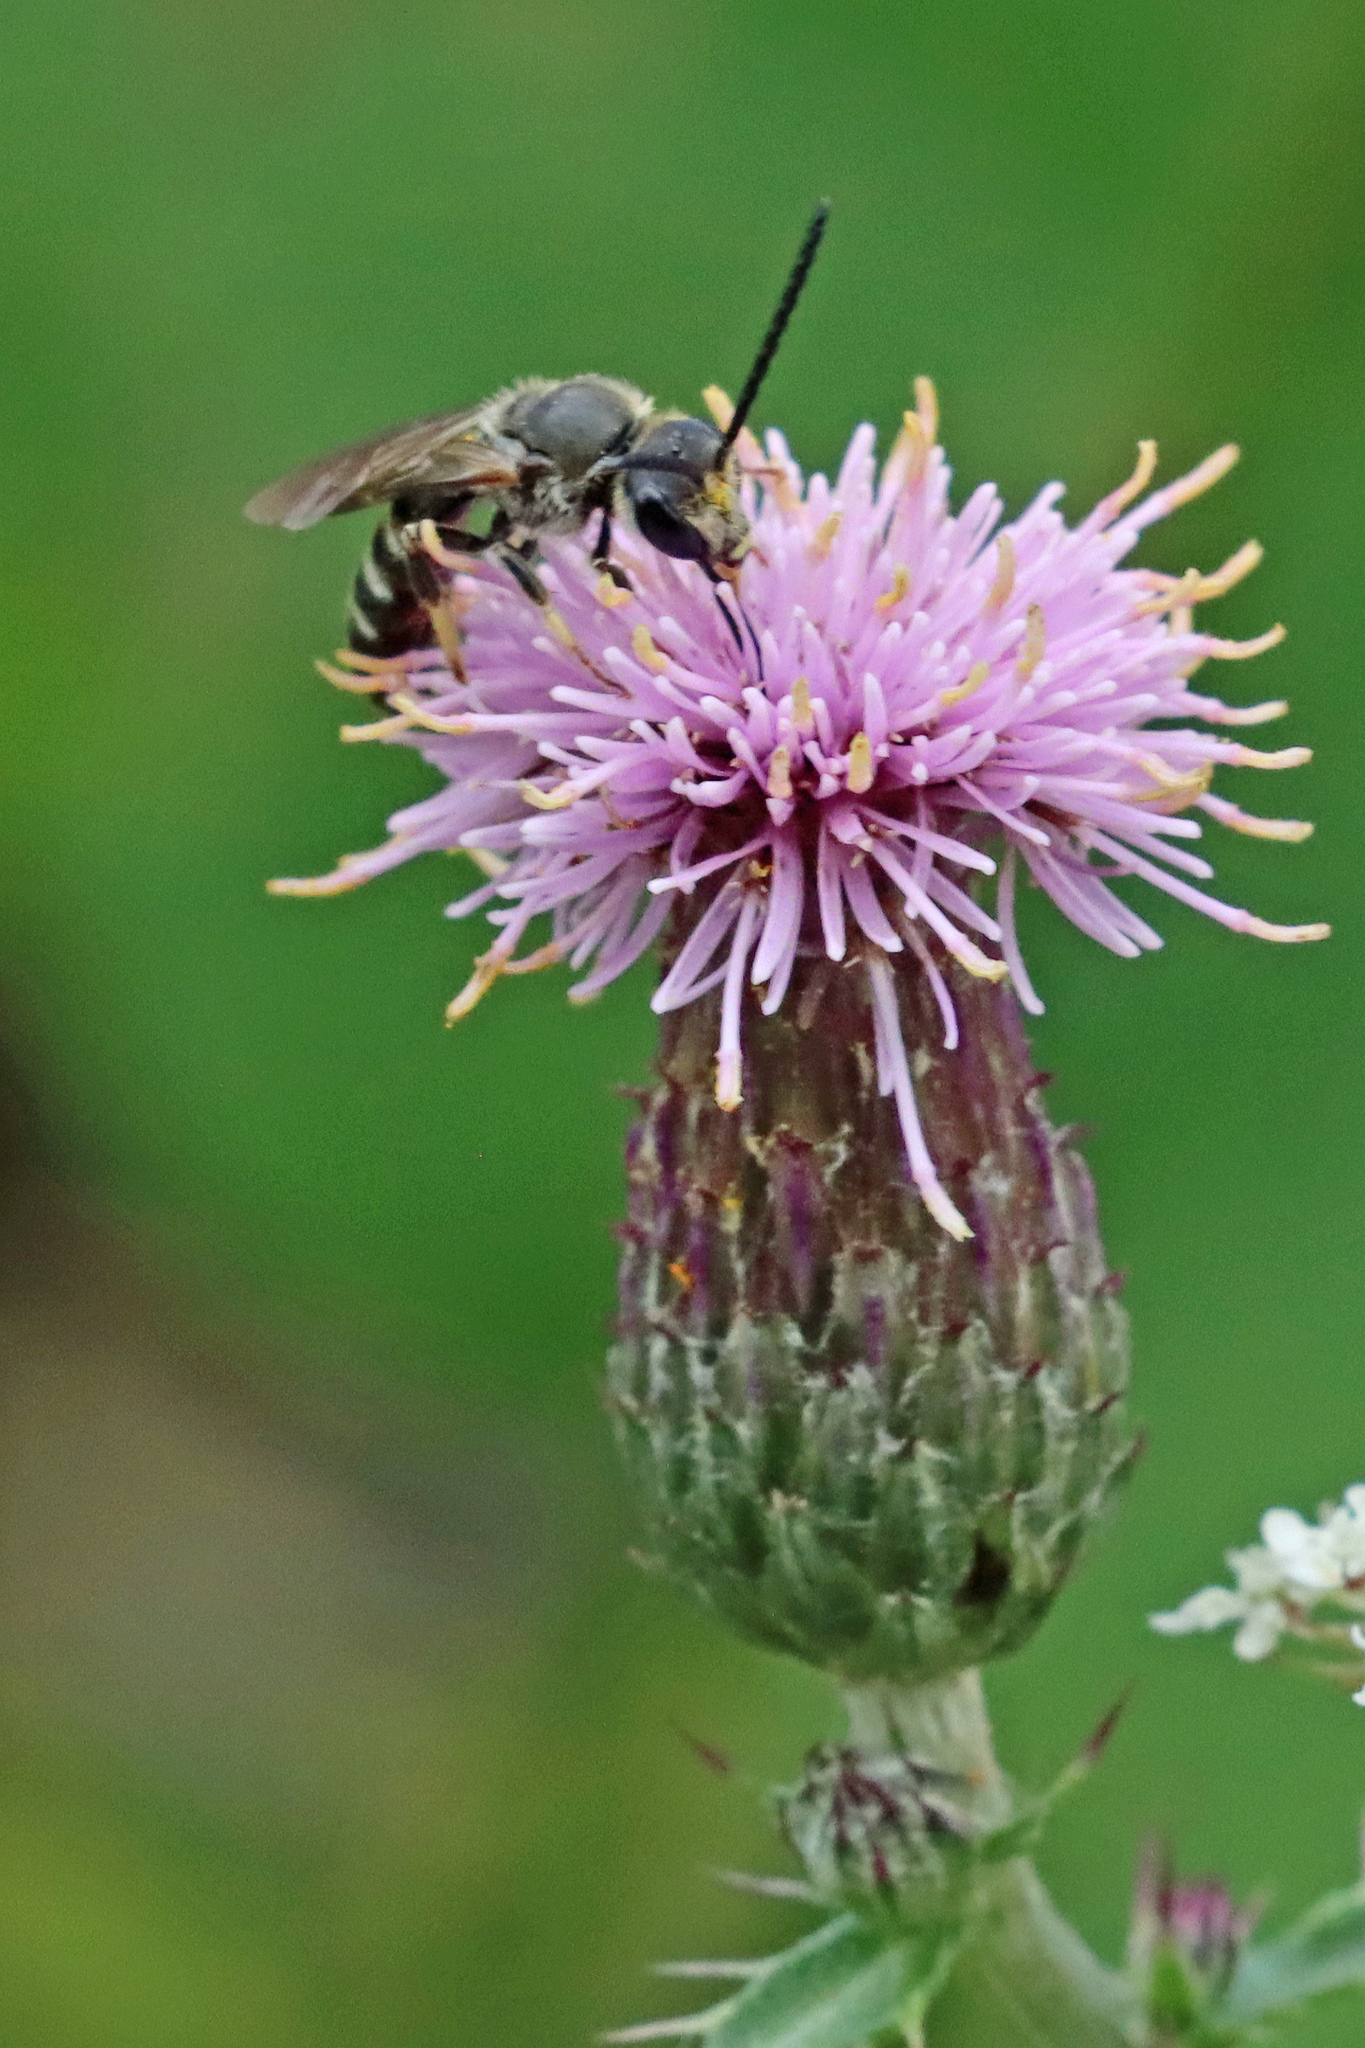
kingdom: Animalia
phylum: Arthropoda
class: Insecta
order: Hymenoptera
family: Halictidae
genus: Lasioglossum
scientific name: Lasioglossum calceatum
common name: Common furrow bee
